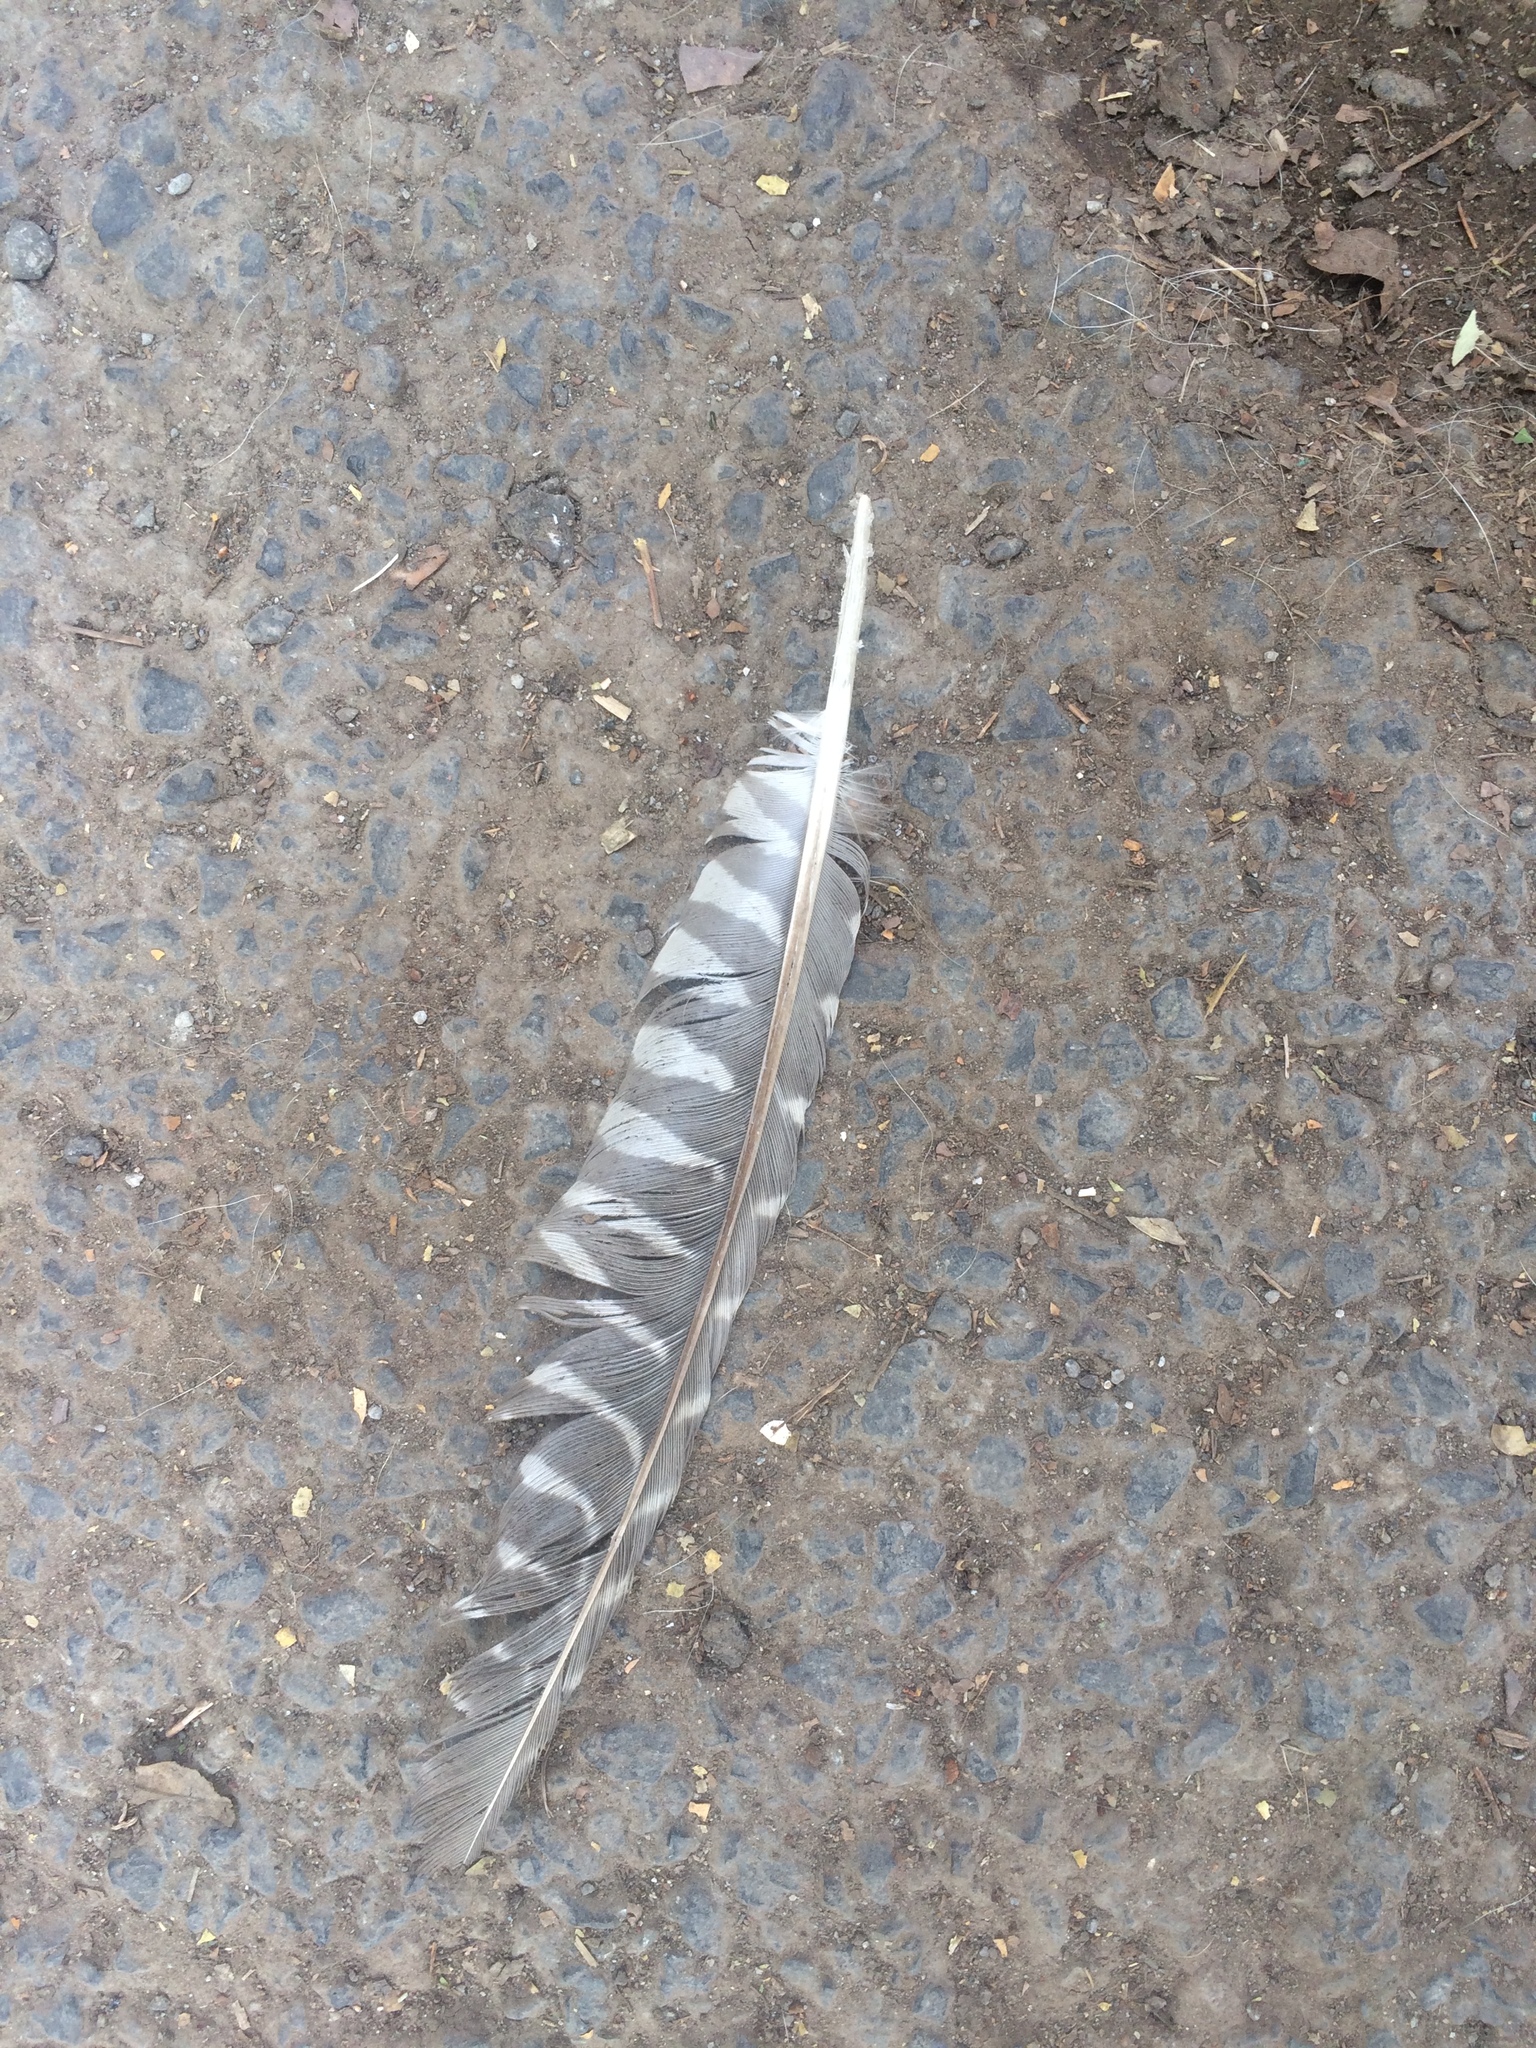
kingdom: Animalia
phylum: Chordata
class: Aves
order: Cuculiformes
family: Cuculidae
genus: Eudynamys
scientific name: Eudynamys scolopaceus
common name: Asian koel
